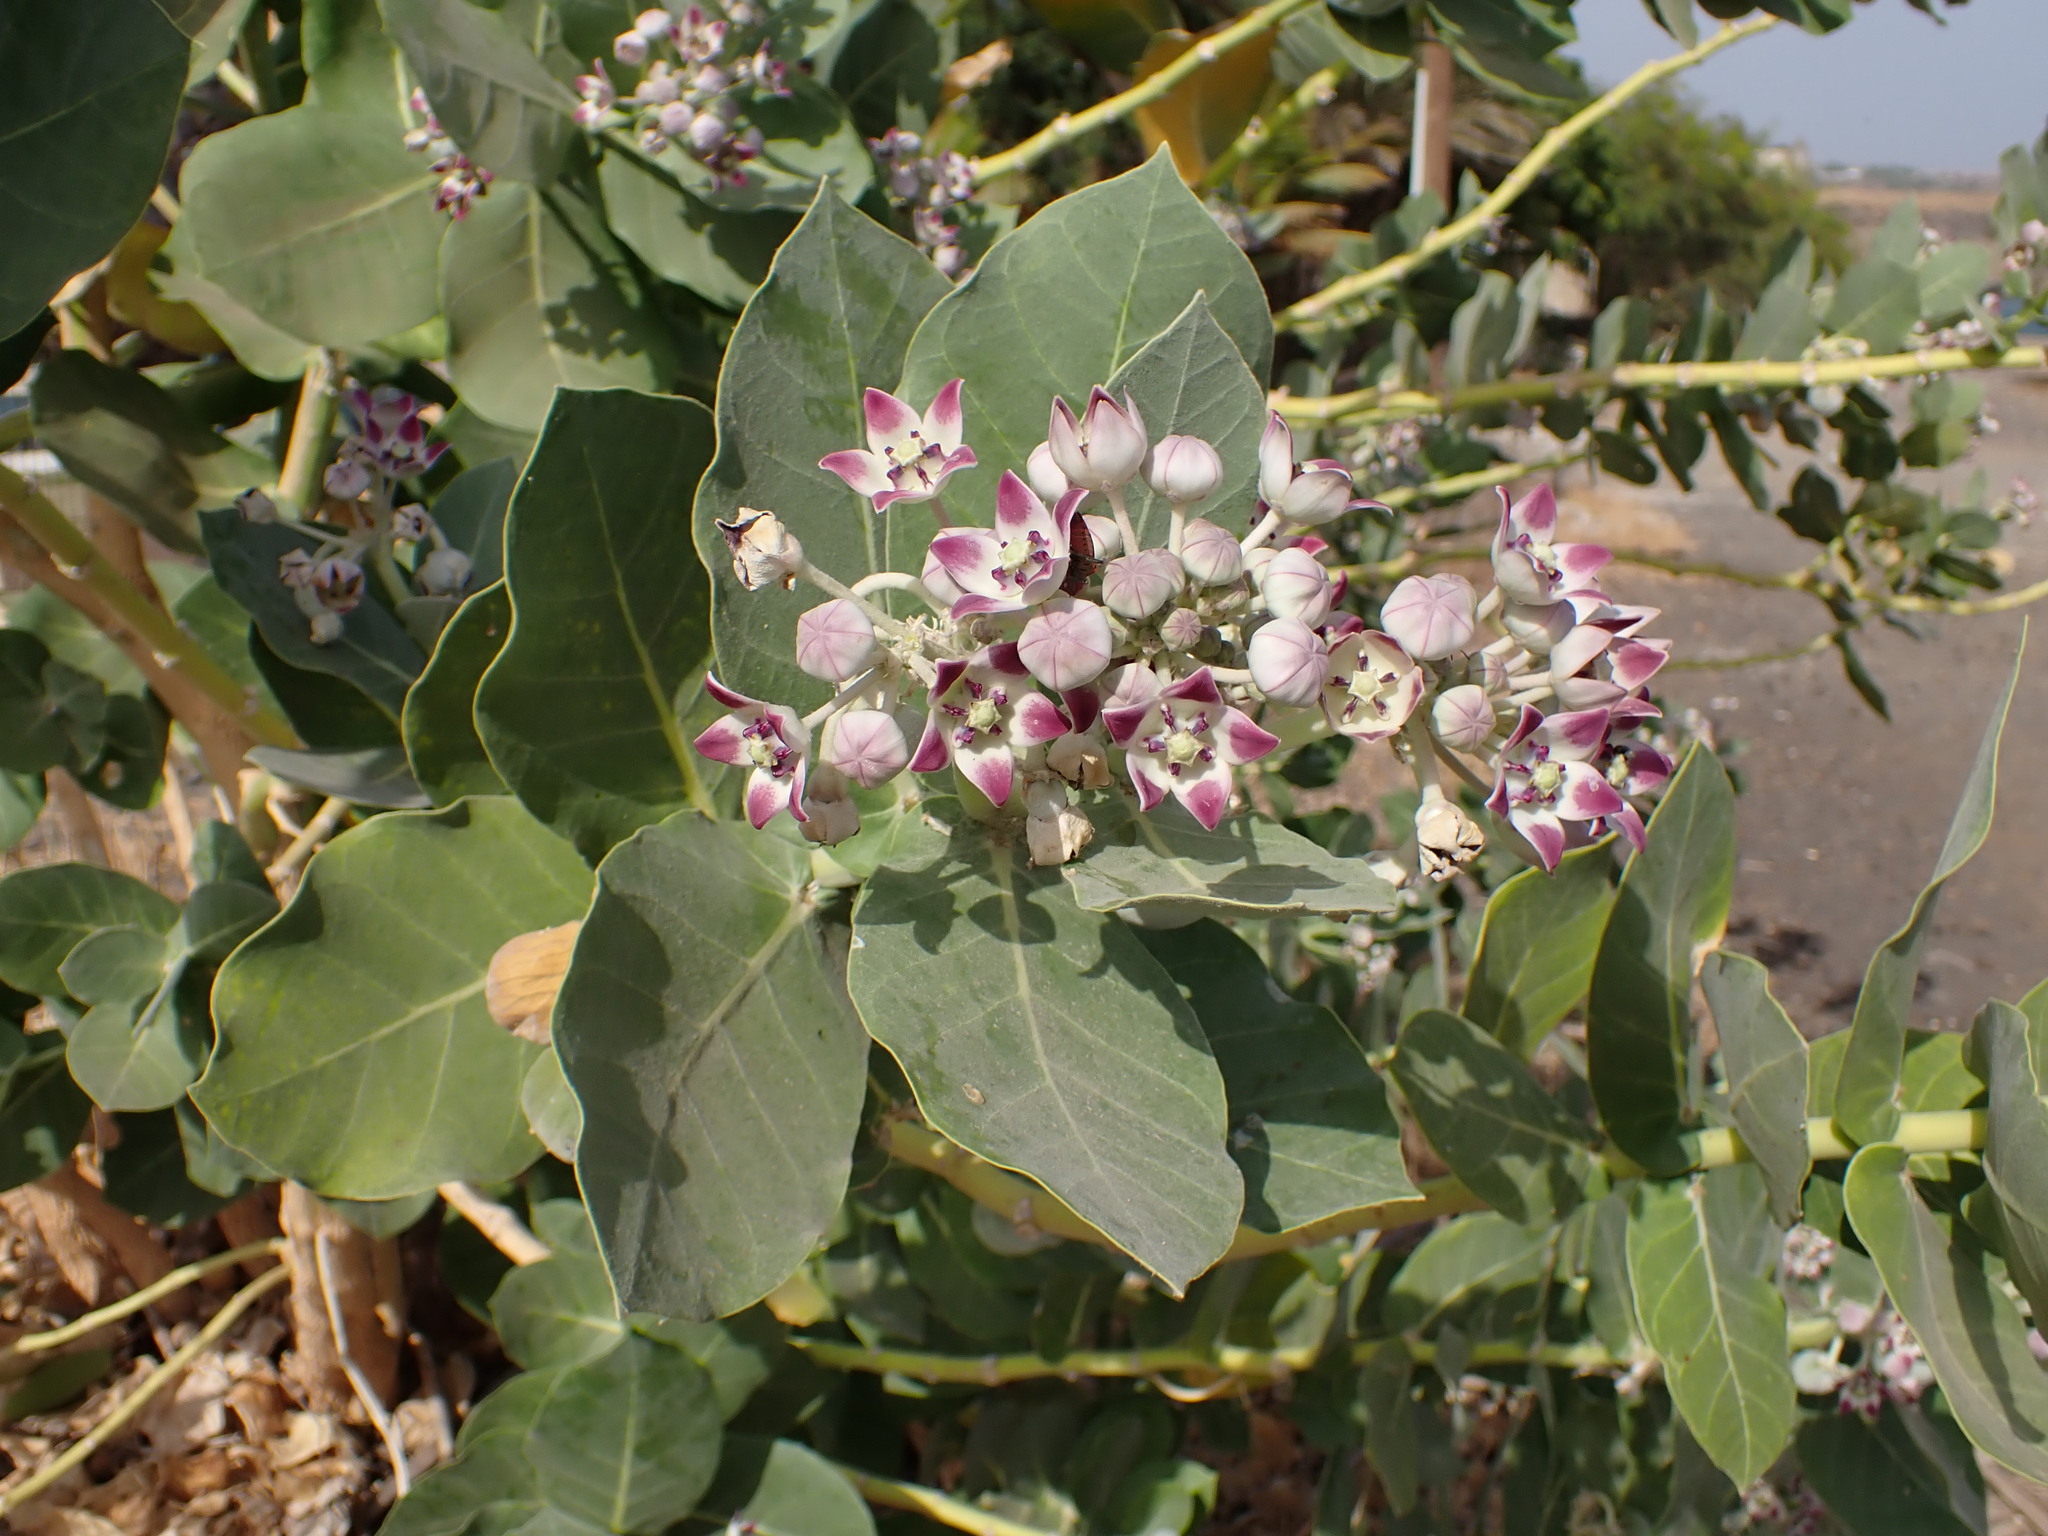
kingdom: Plantae
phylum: Tracheophyta
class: Magnoliopsida
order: Gentianales
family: Apocynaceae
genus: Calotropis
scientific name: Calotropis procera
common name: Roostertree
